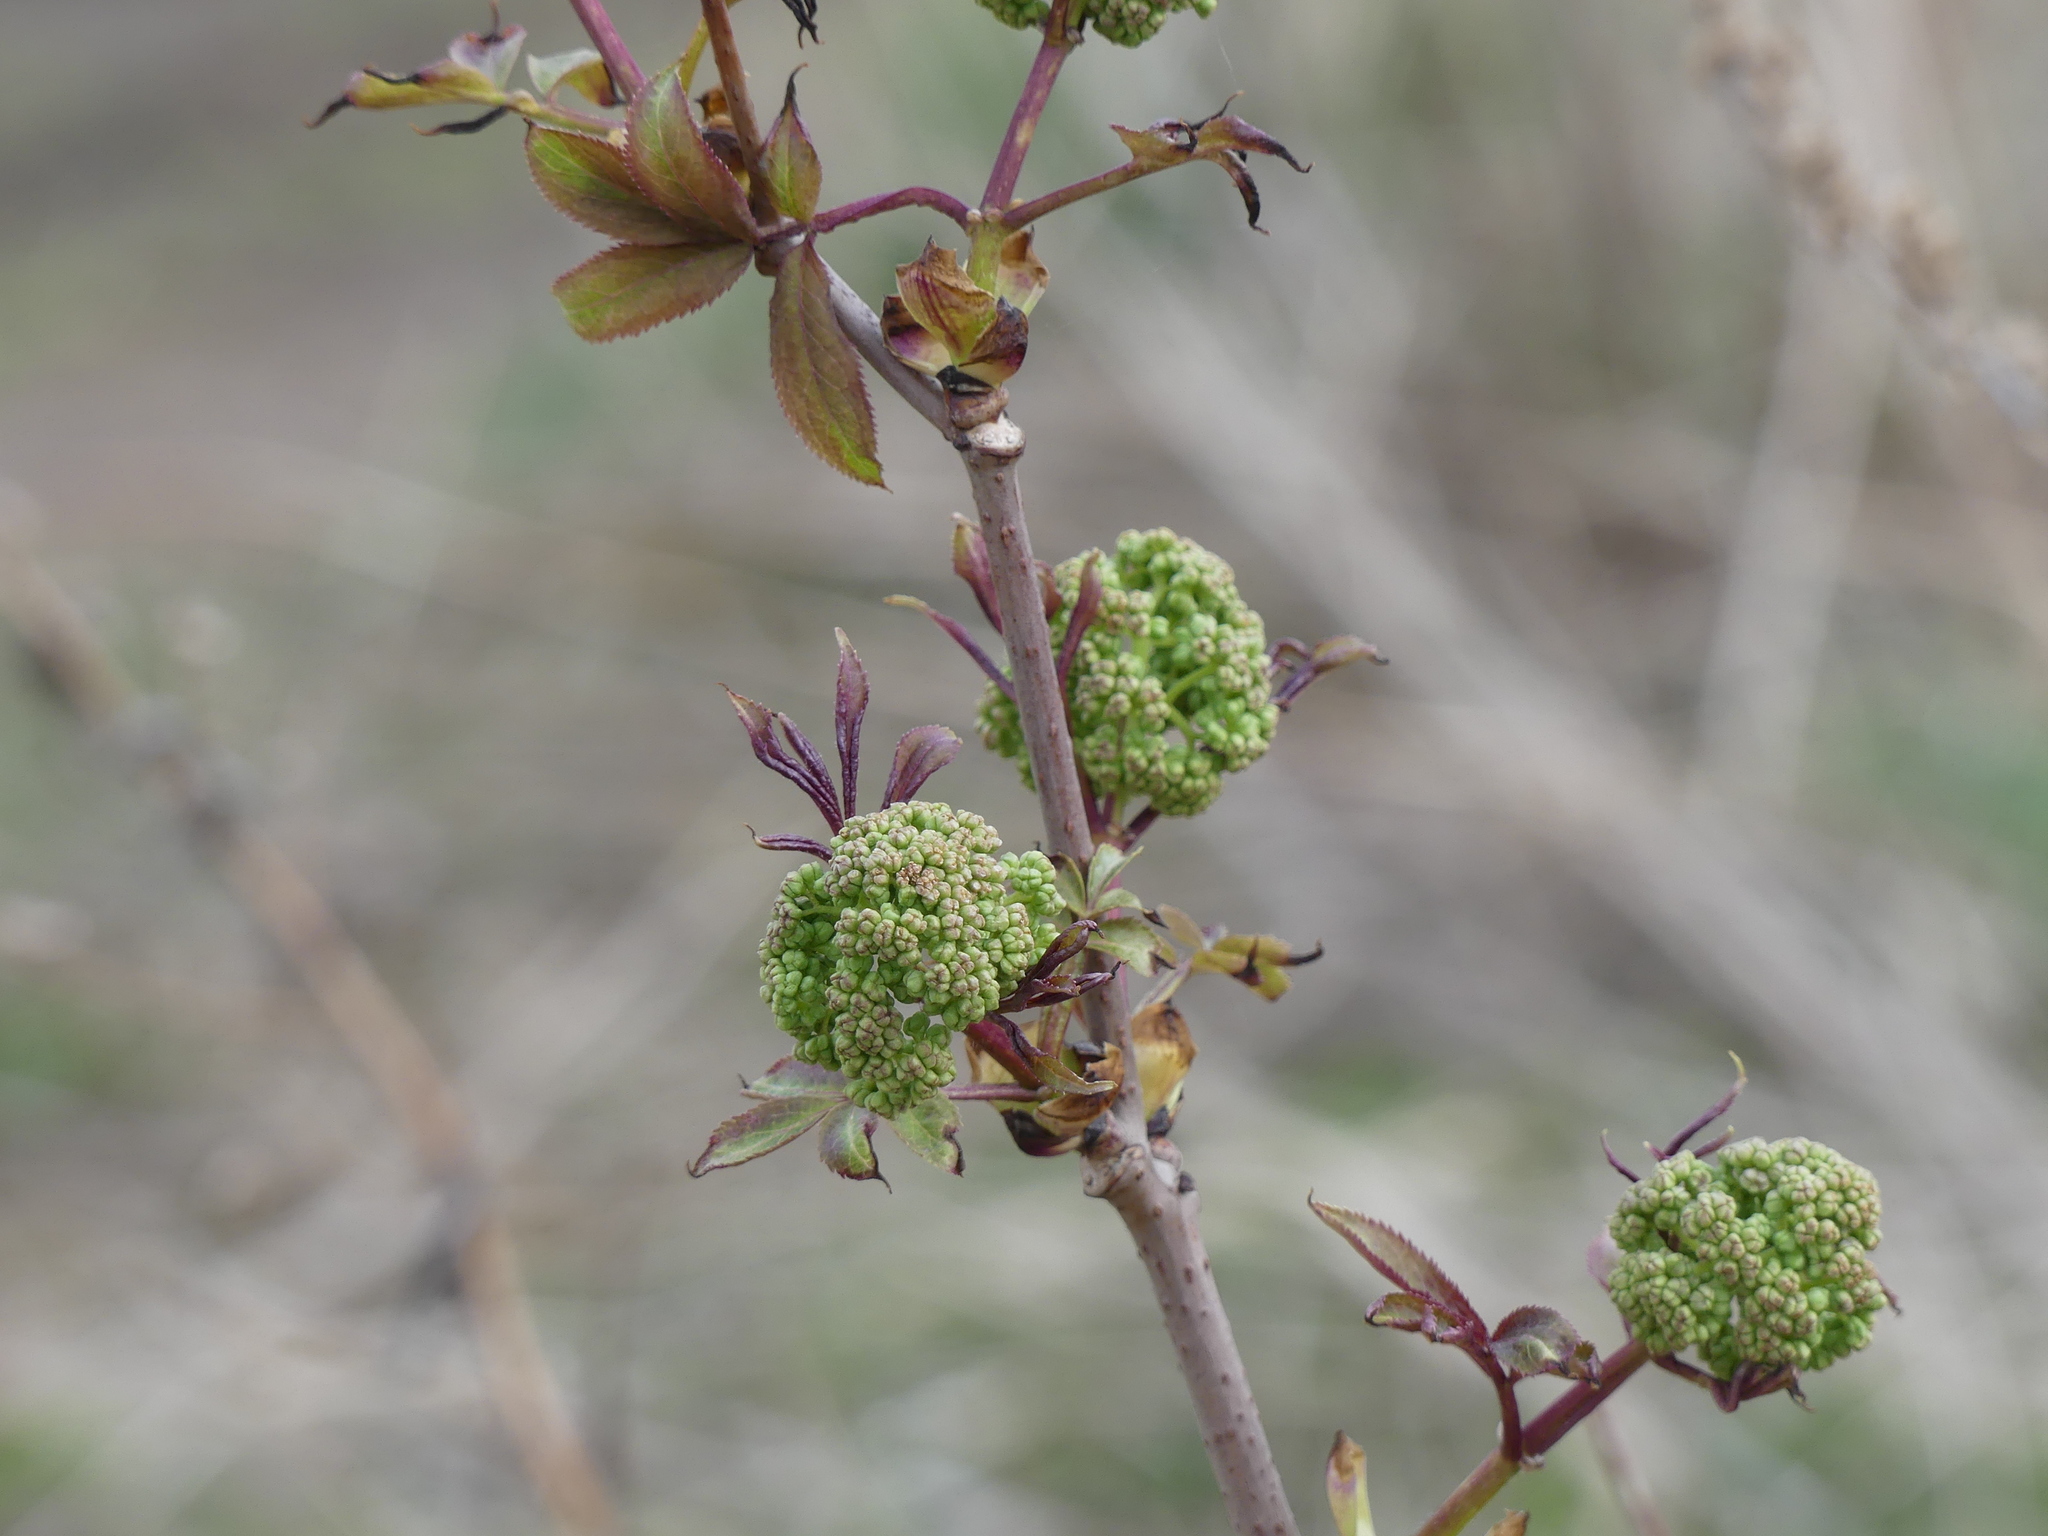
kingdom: Plantae
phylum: Tracheophyta
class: Magnoliopsida
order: Dipsacales
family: Viburnaceae
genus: Sambucus
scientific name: Sambucus racemosa
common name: Red-berried elder
